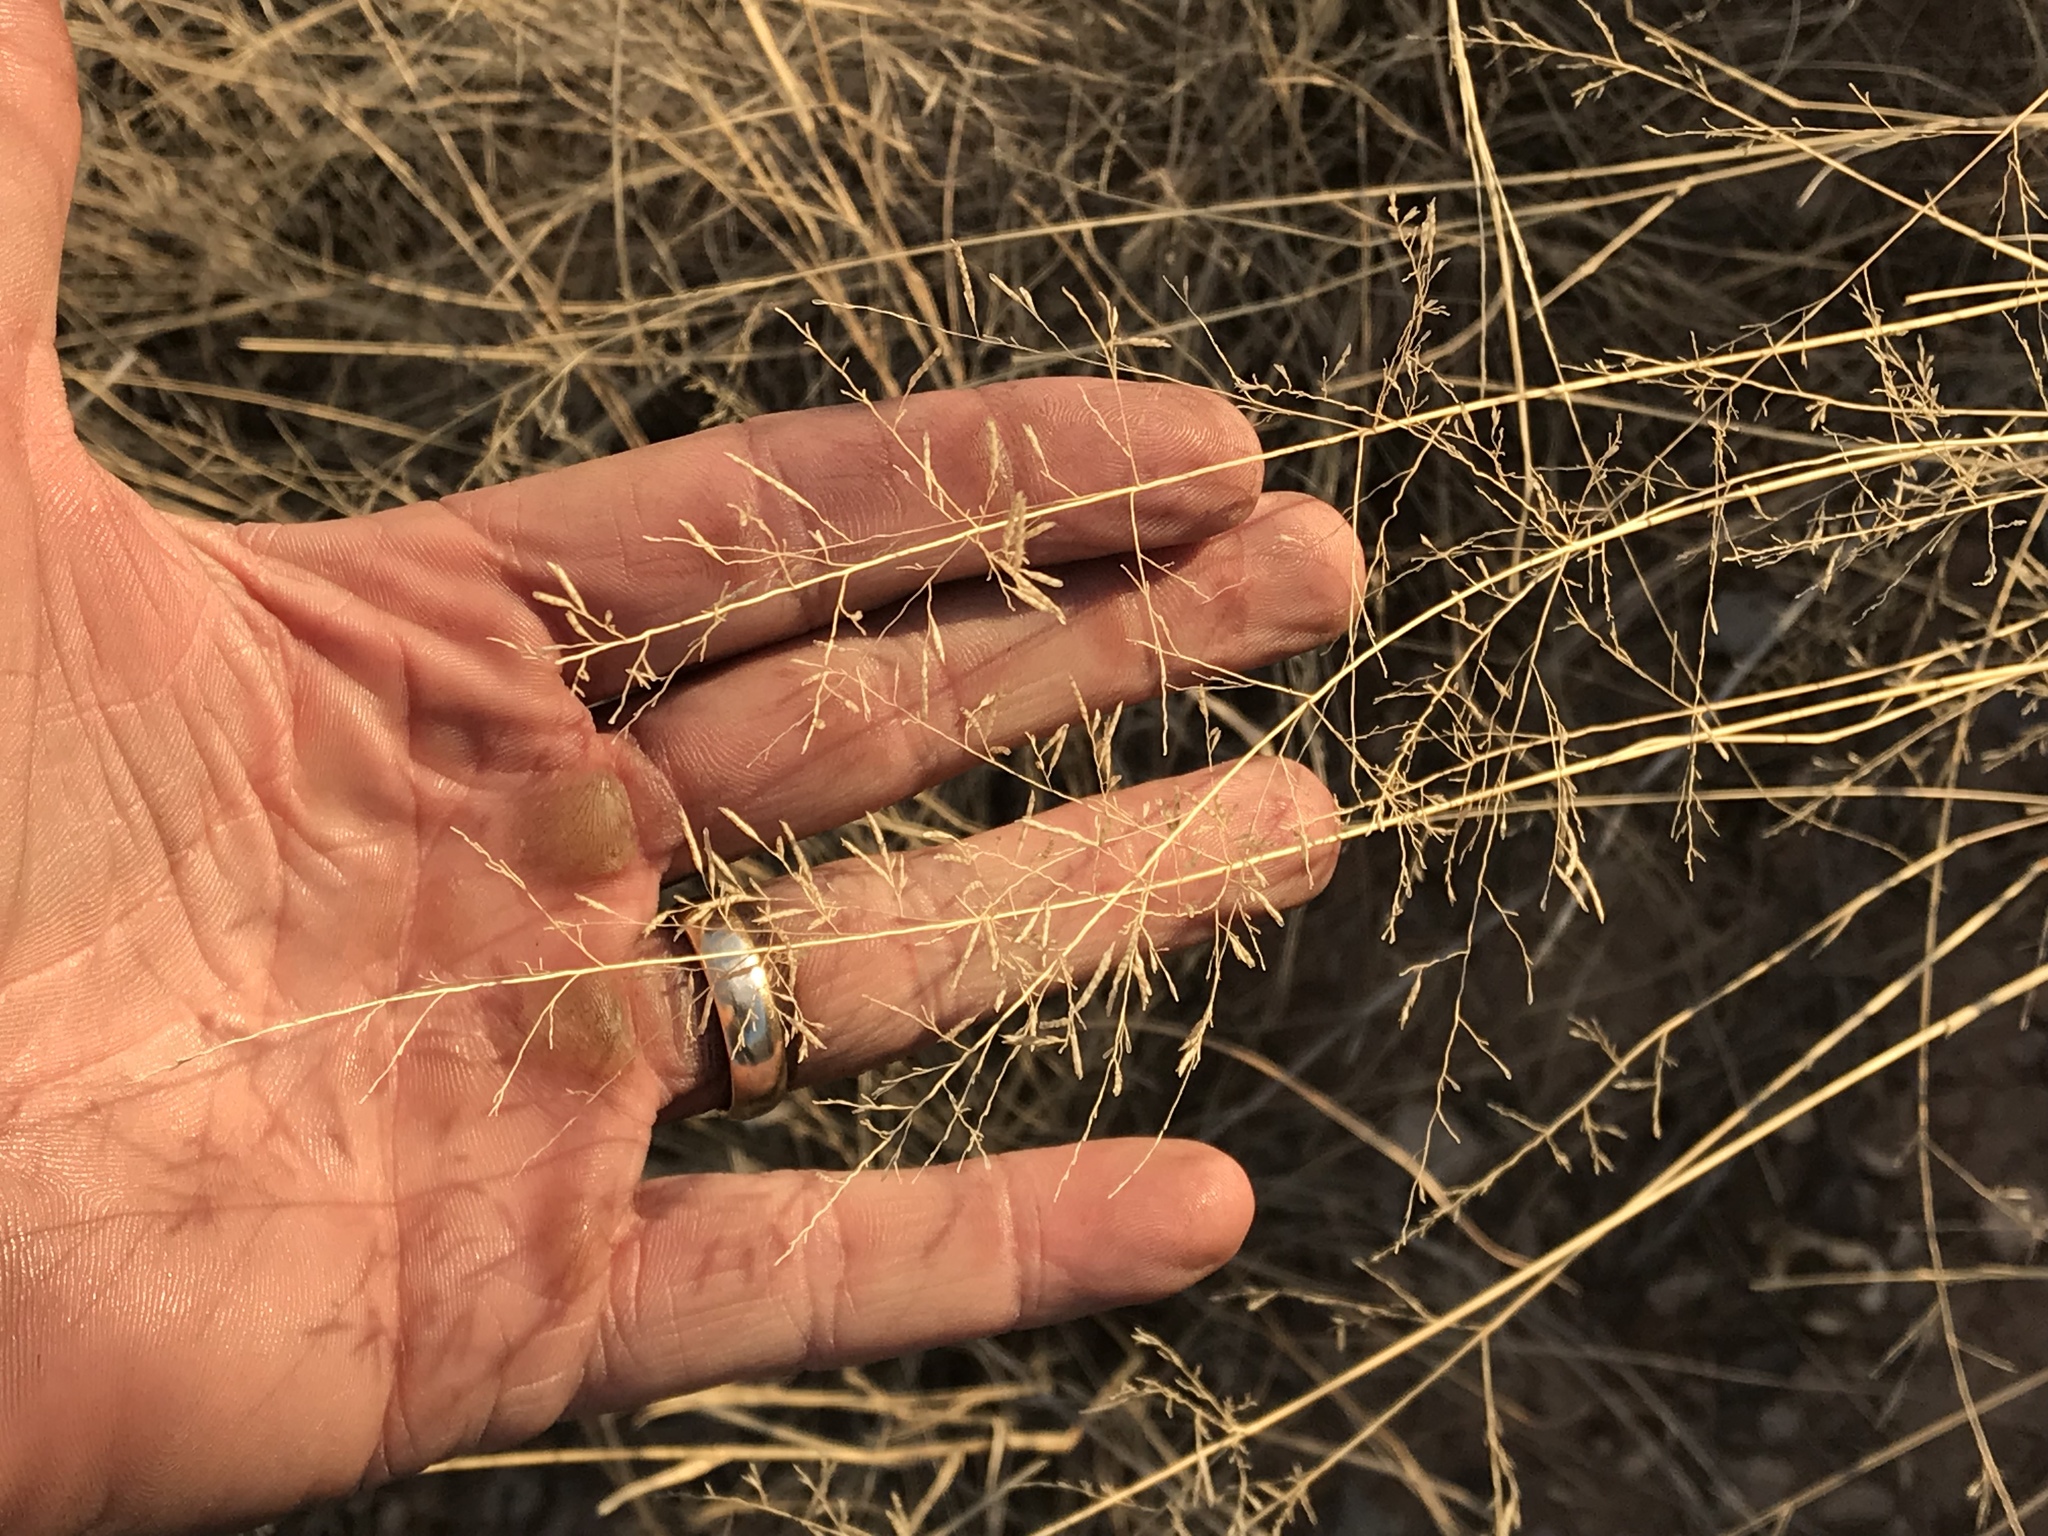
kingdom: Plantae
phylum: Tracheophyta
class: Liliopsida
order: Poales
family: Poaceae
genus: Eragrostis
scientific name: Eragrostis lehmanniana
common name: Lehmann lovegrass
